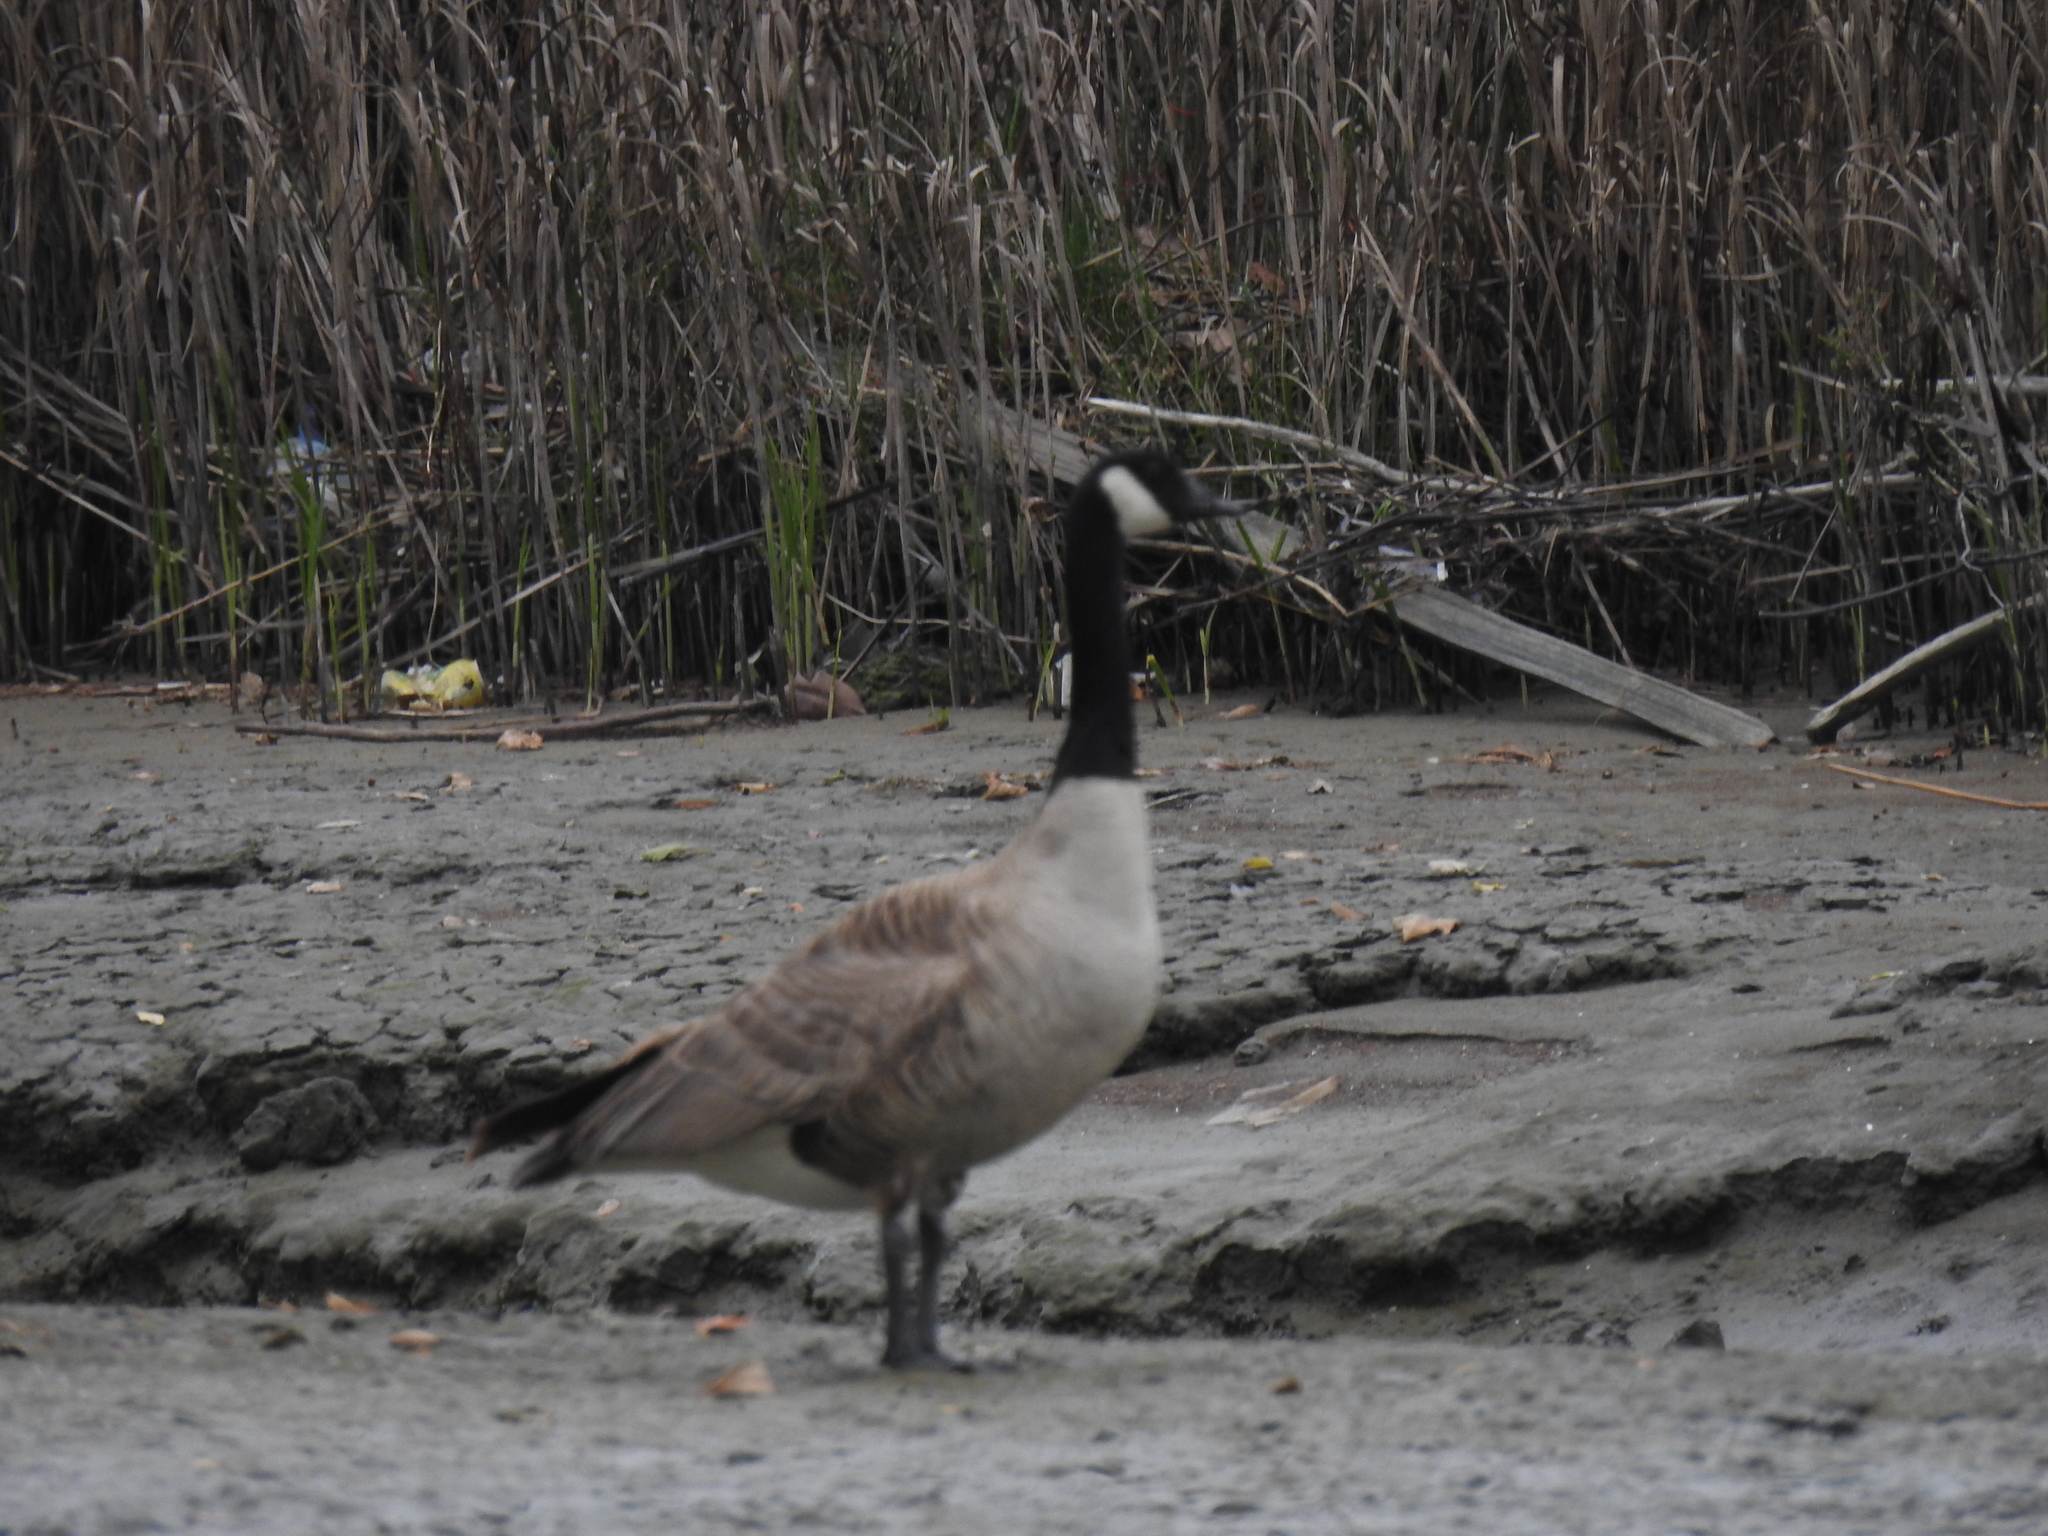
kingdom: Animalia
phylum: Chordata
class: Aves
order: Anseriformes
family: Anatidae
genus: Branta
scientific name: Branta canadensis
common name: Canada goose
